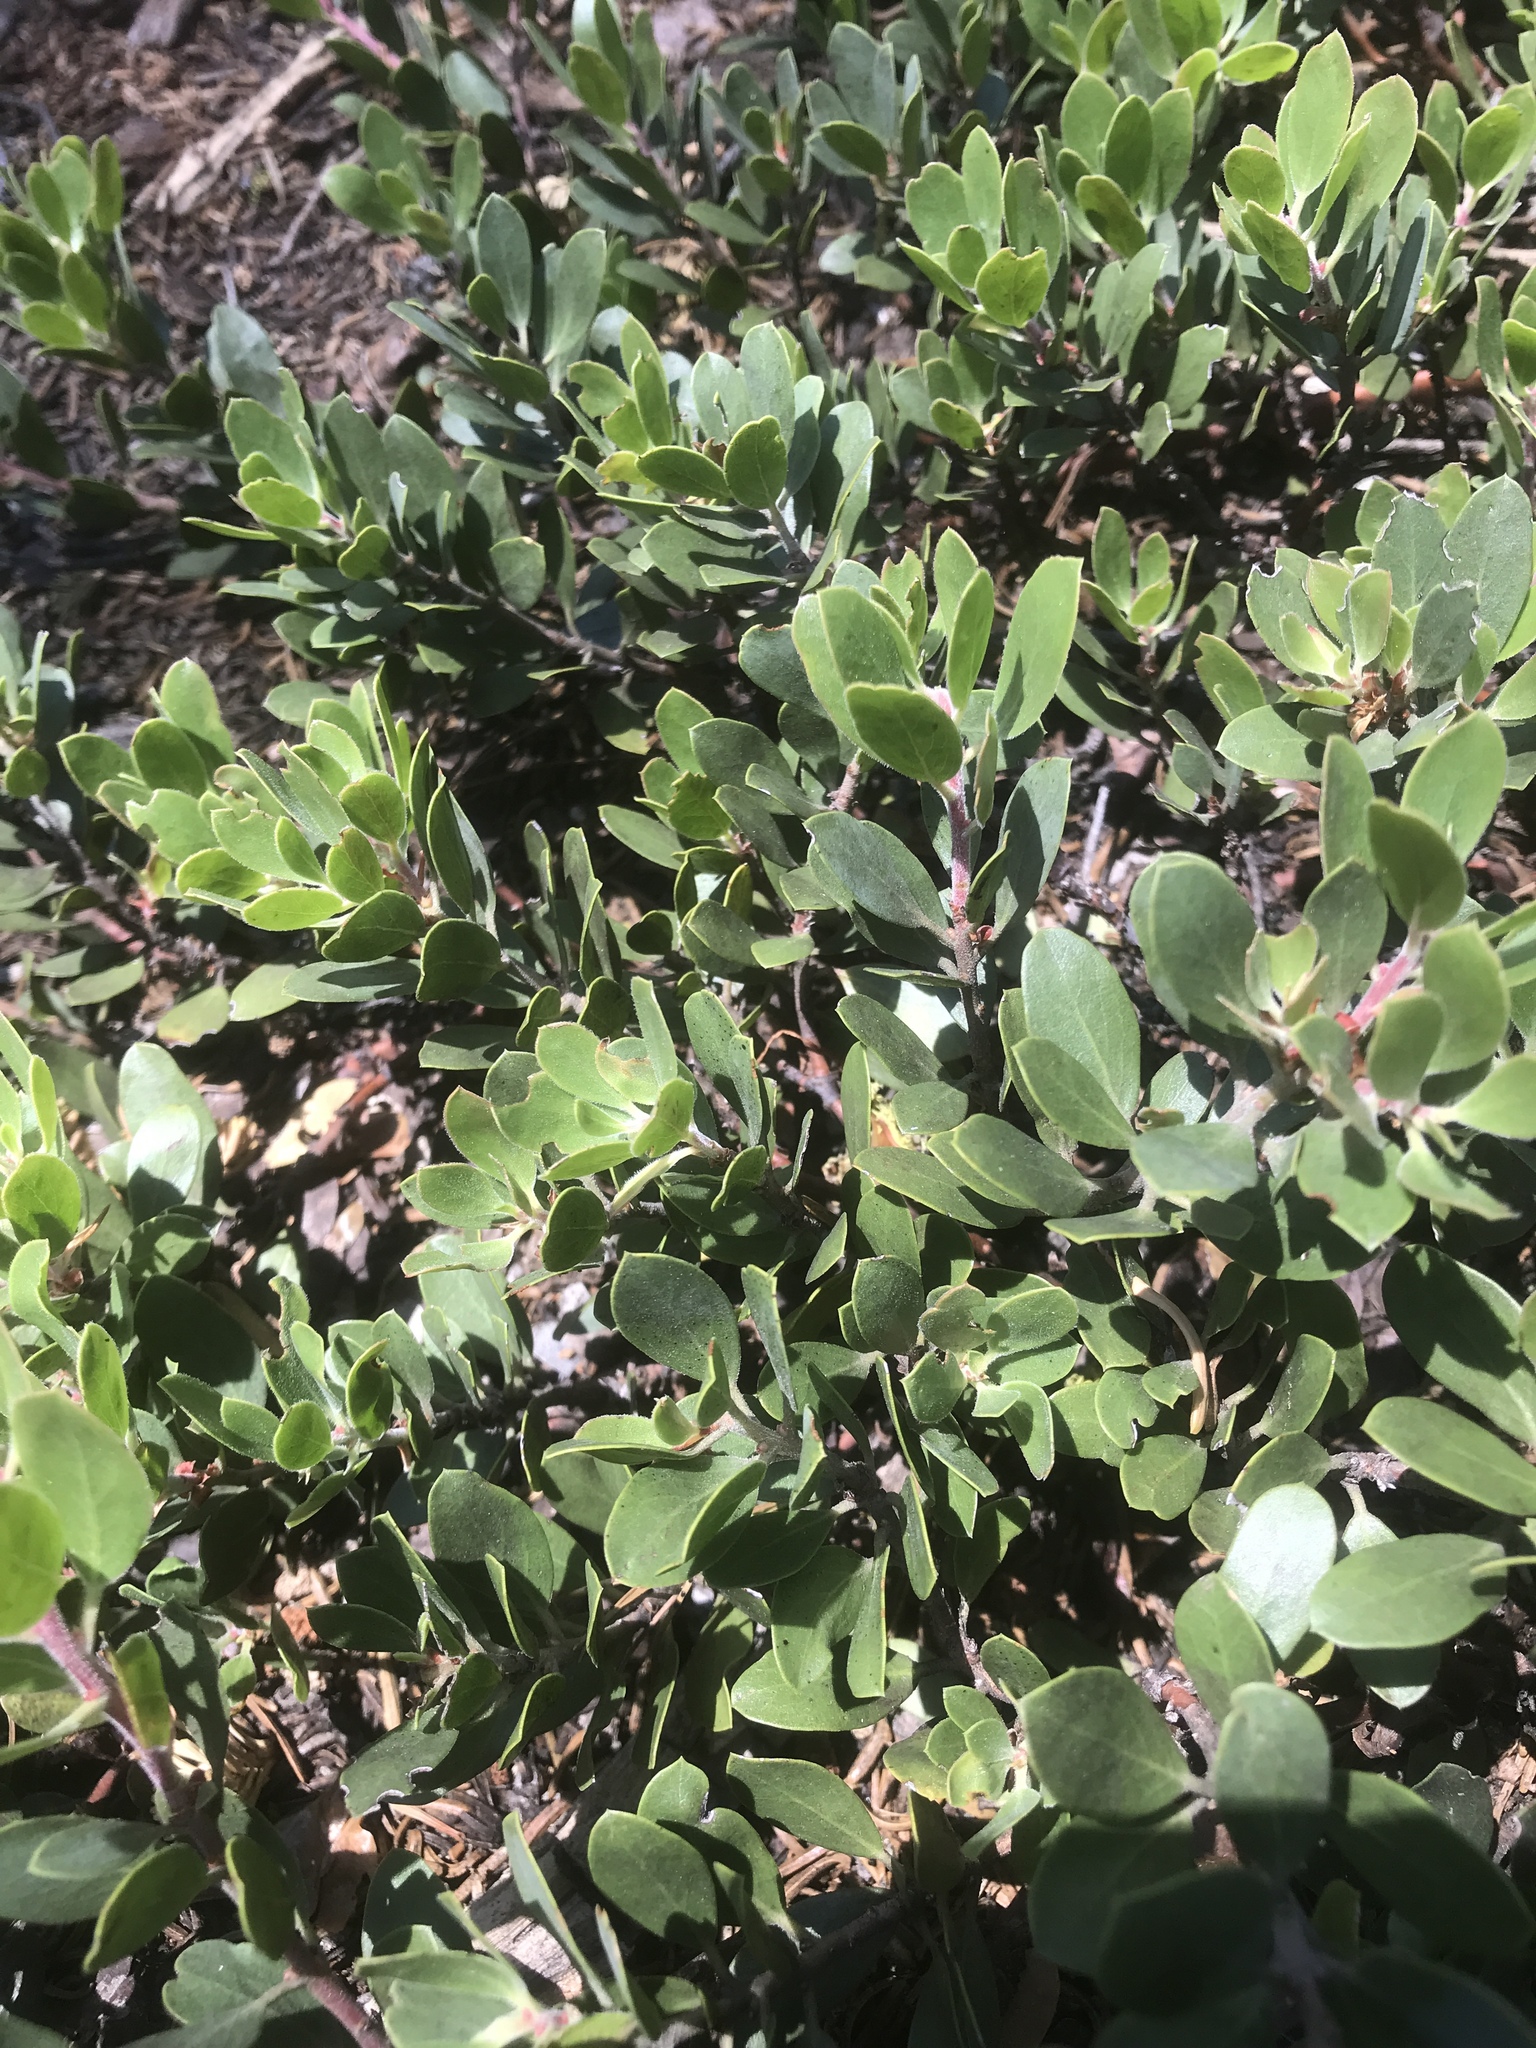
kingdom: Plantae
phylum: Tracheophyta
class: Magnoliopsida
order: Ericales
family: Ericaceae
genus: Arctostaphylos
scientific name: Arctostaphylos nevadensis
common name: Pinemat manzanita
